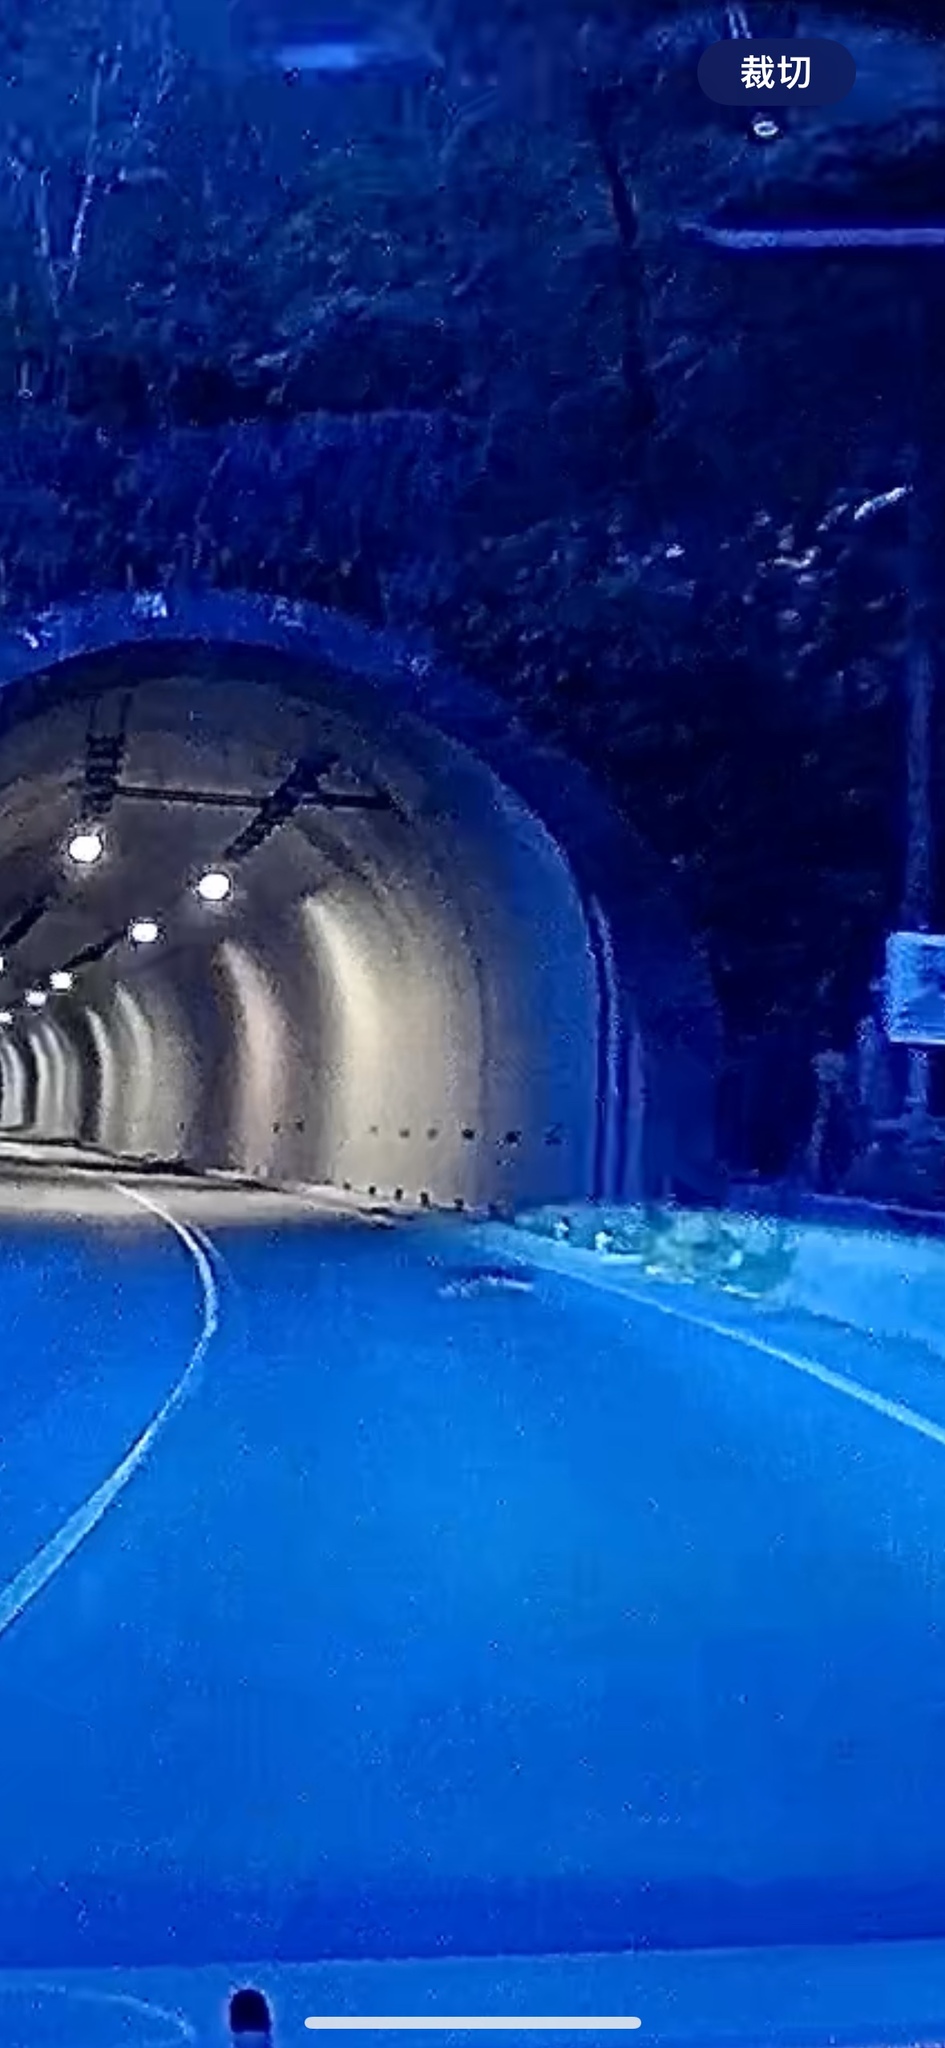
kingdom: Animalia
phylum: Chordata
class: Mammalia
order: Carnivora
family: Mustelidae
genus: Melogale
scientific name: Melogale
